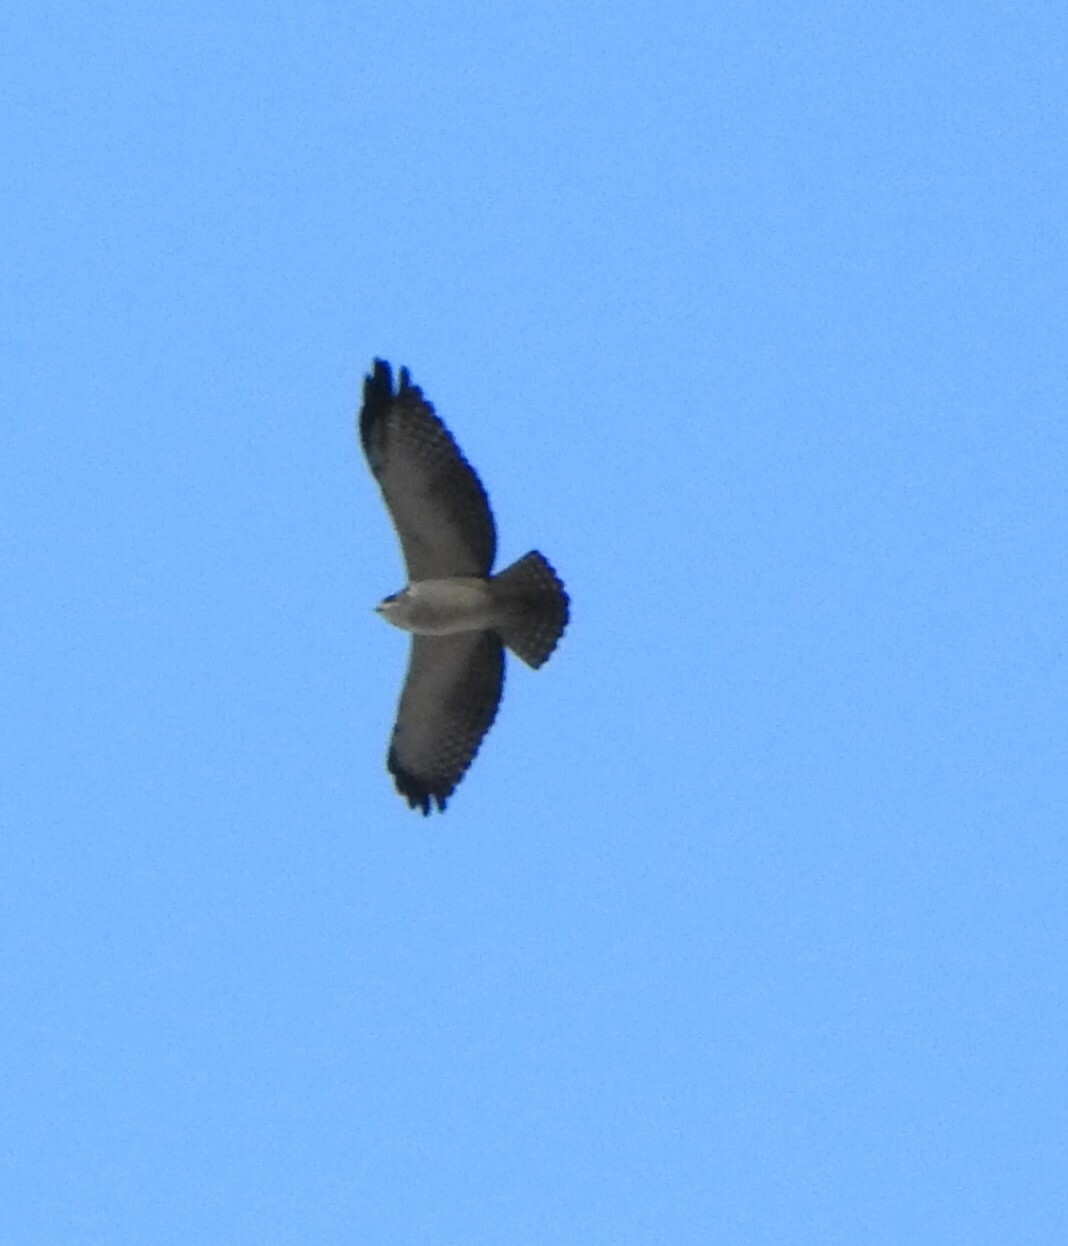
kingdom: Animalia
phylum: Chordata
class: Aves
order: Accipitriformes
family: Accipitridae
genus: Buteo
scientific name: Buteo brachyurus
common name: Short-tailed hawk
